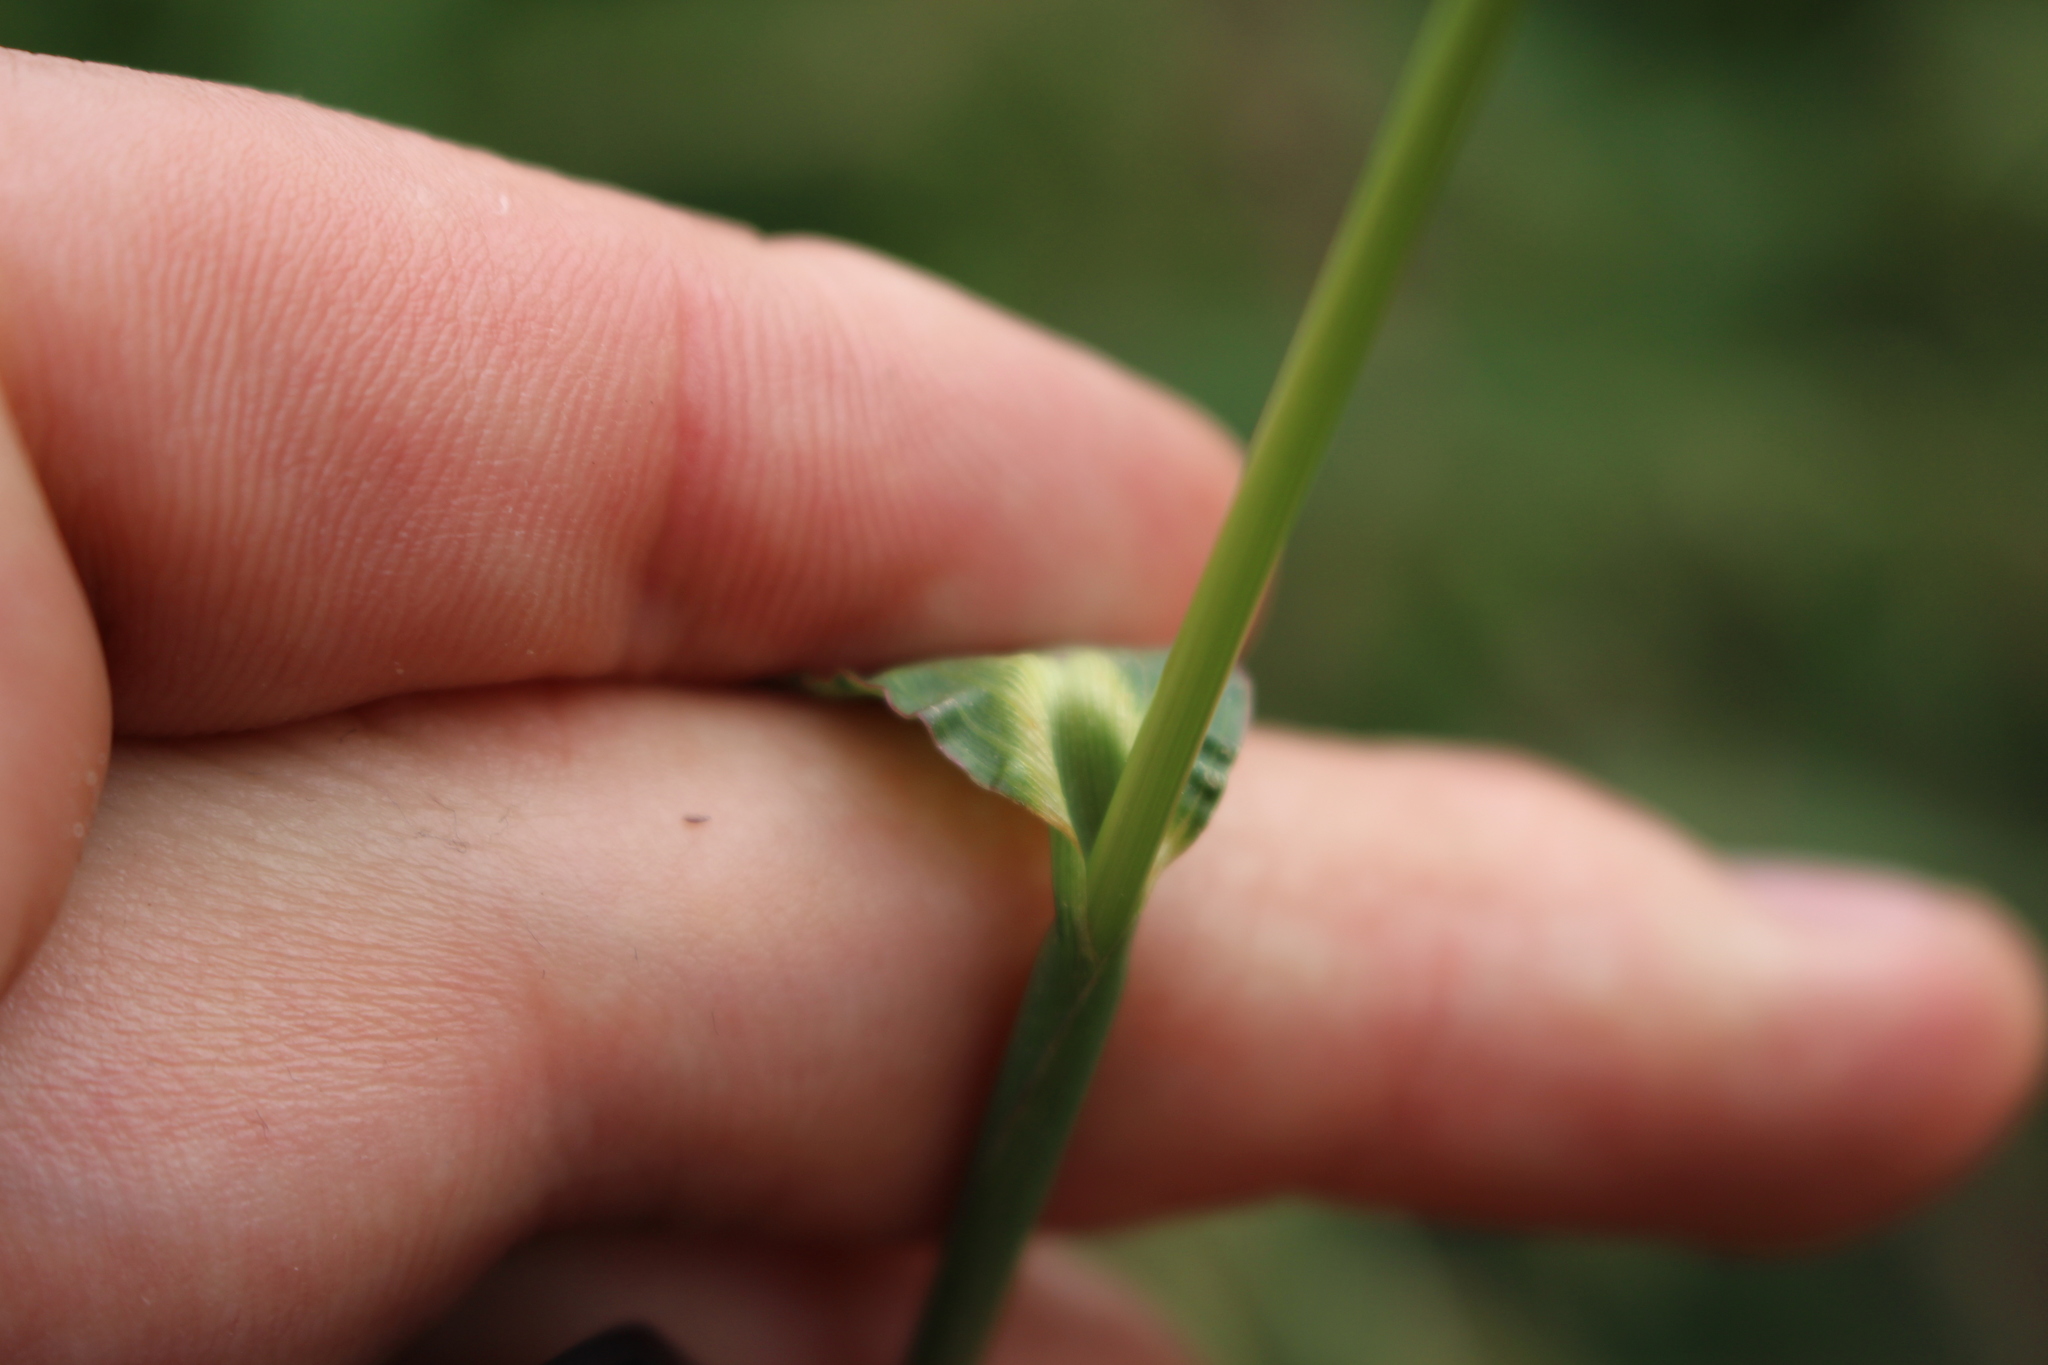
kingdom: Plantae
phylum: Tracheophyta
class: Liliopsida
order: Poales
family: Poaceae
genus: Echinochloa
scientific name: Echinochloa crus-galli
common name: Cockspur
